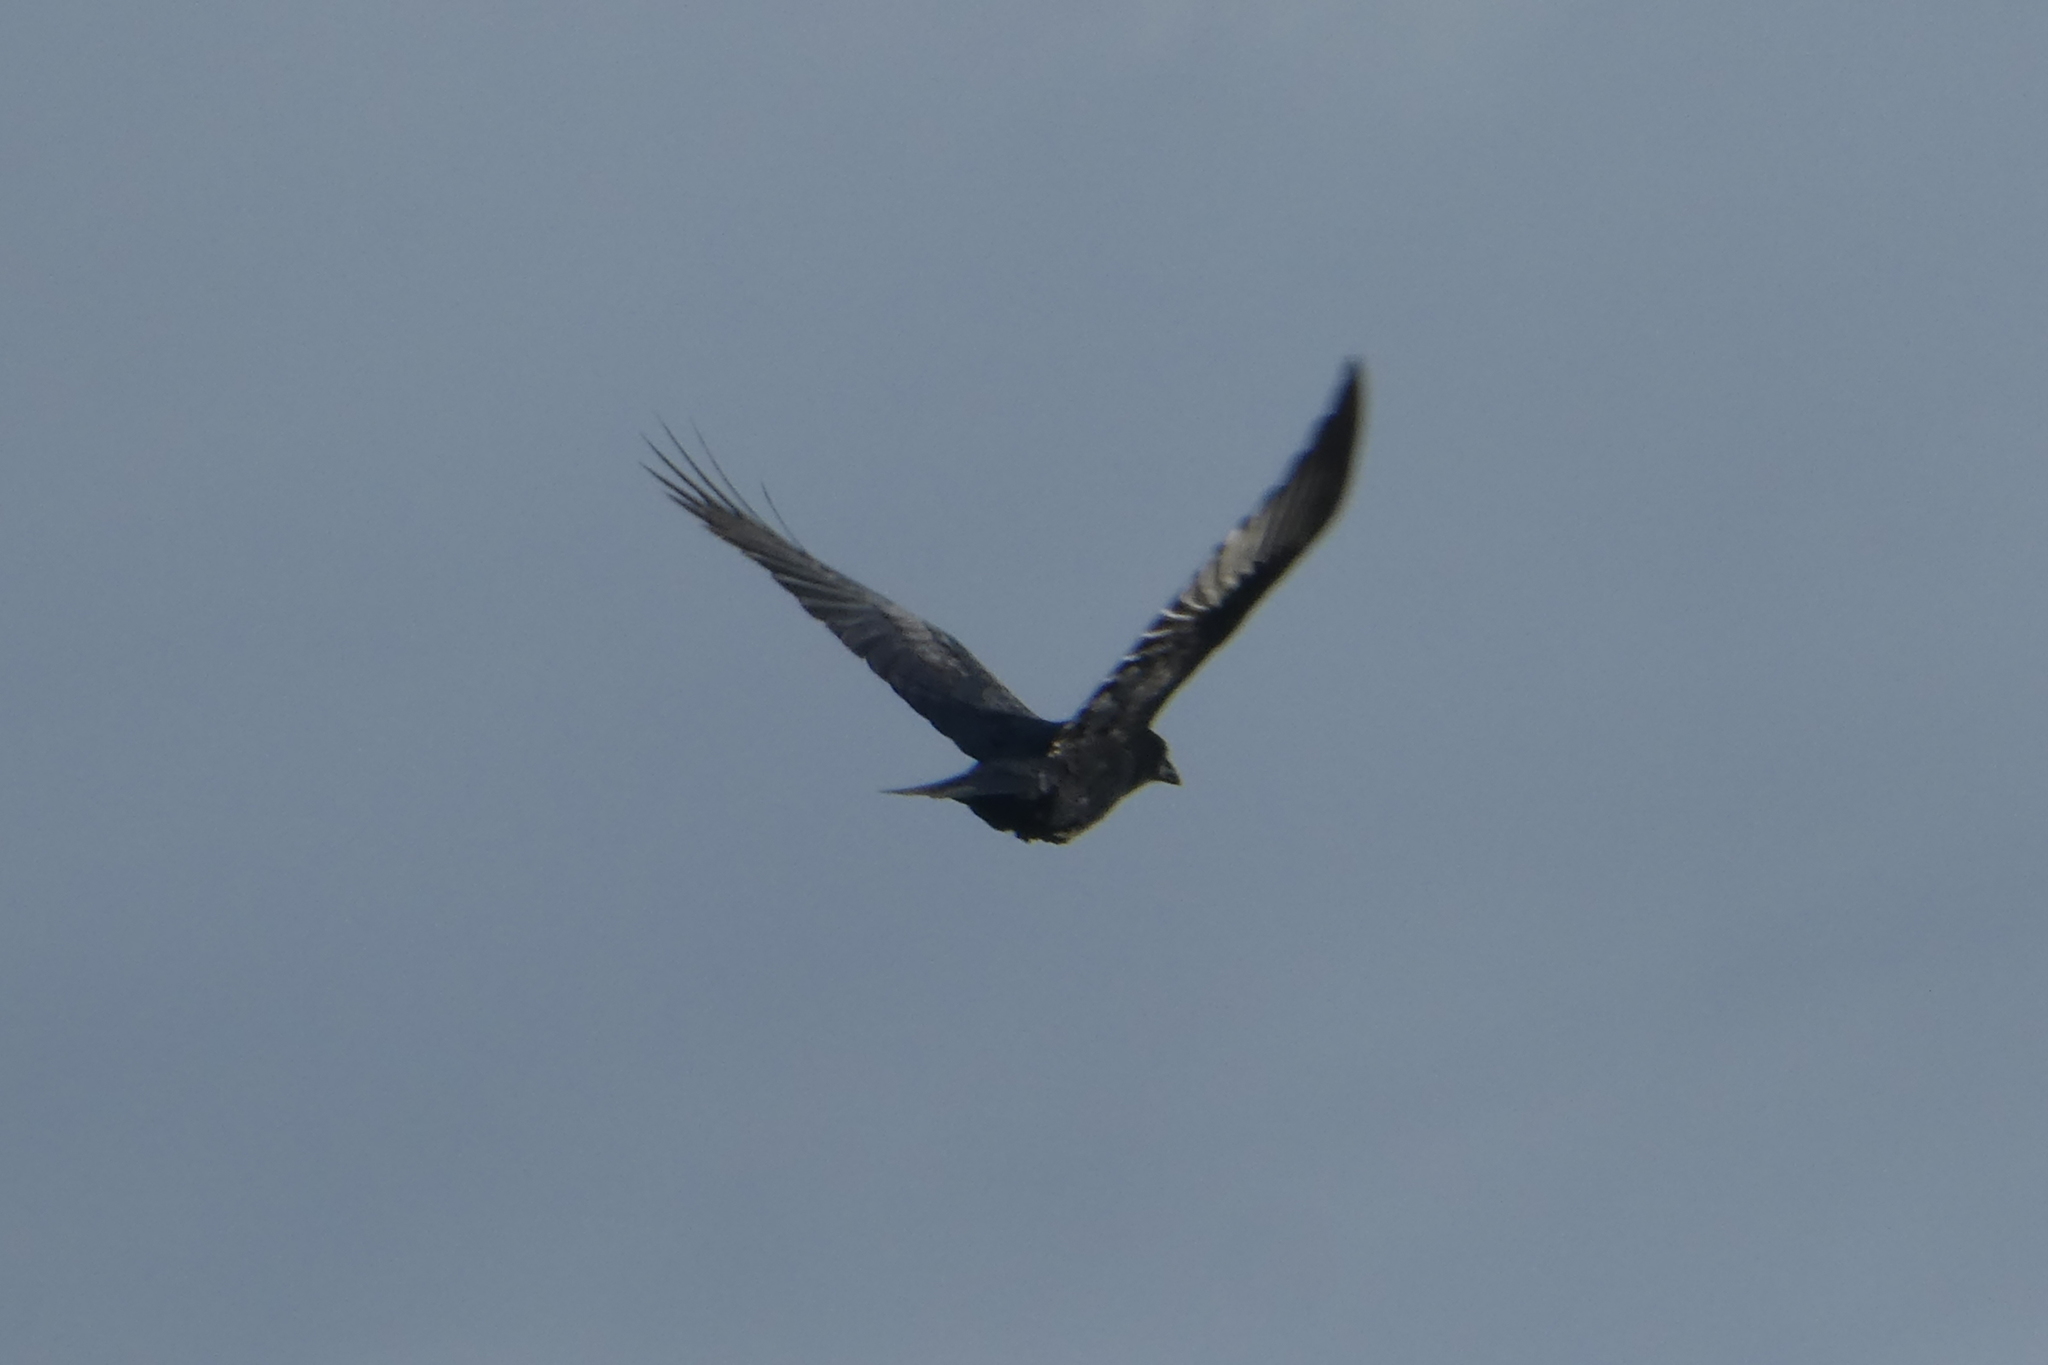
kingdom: Animalia
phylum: Chordata
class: Aves
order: Passeriformes
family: Corvidae
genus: Corvus
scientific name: Corvus brachyrhynchos
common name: American crow
